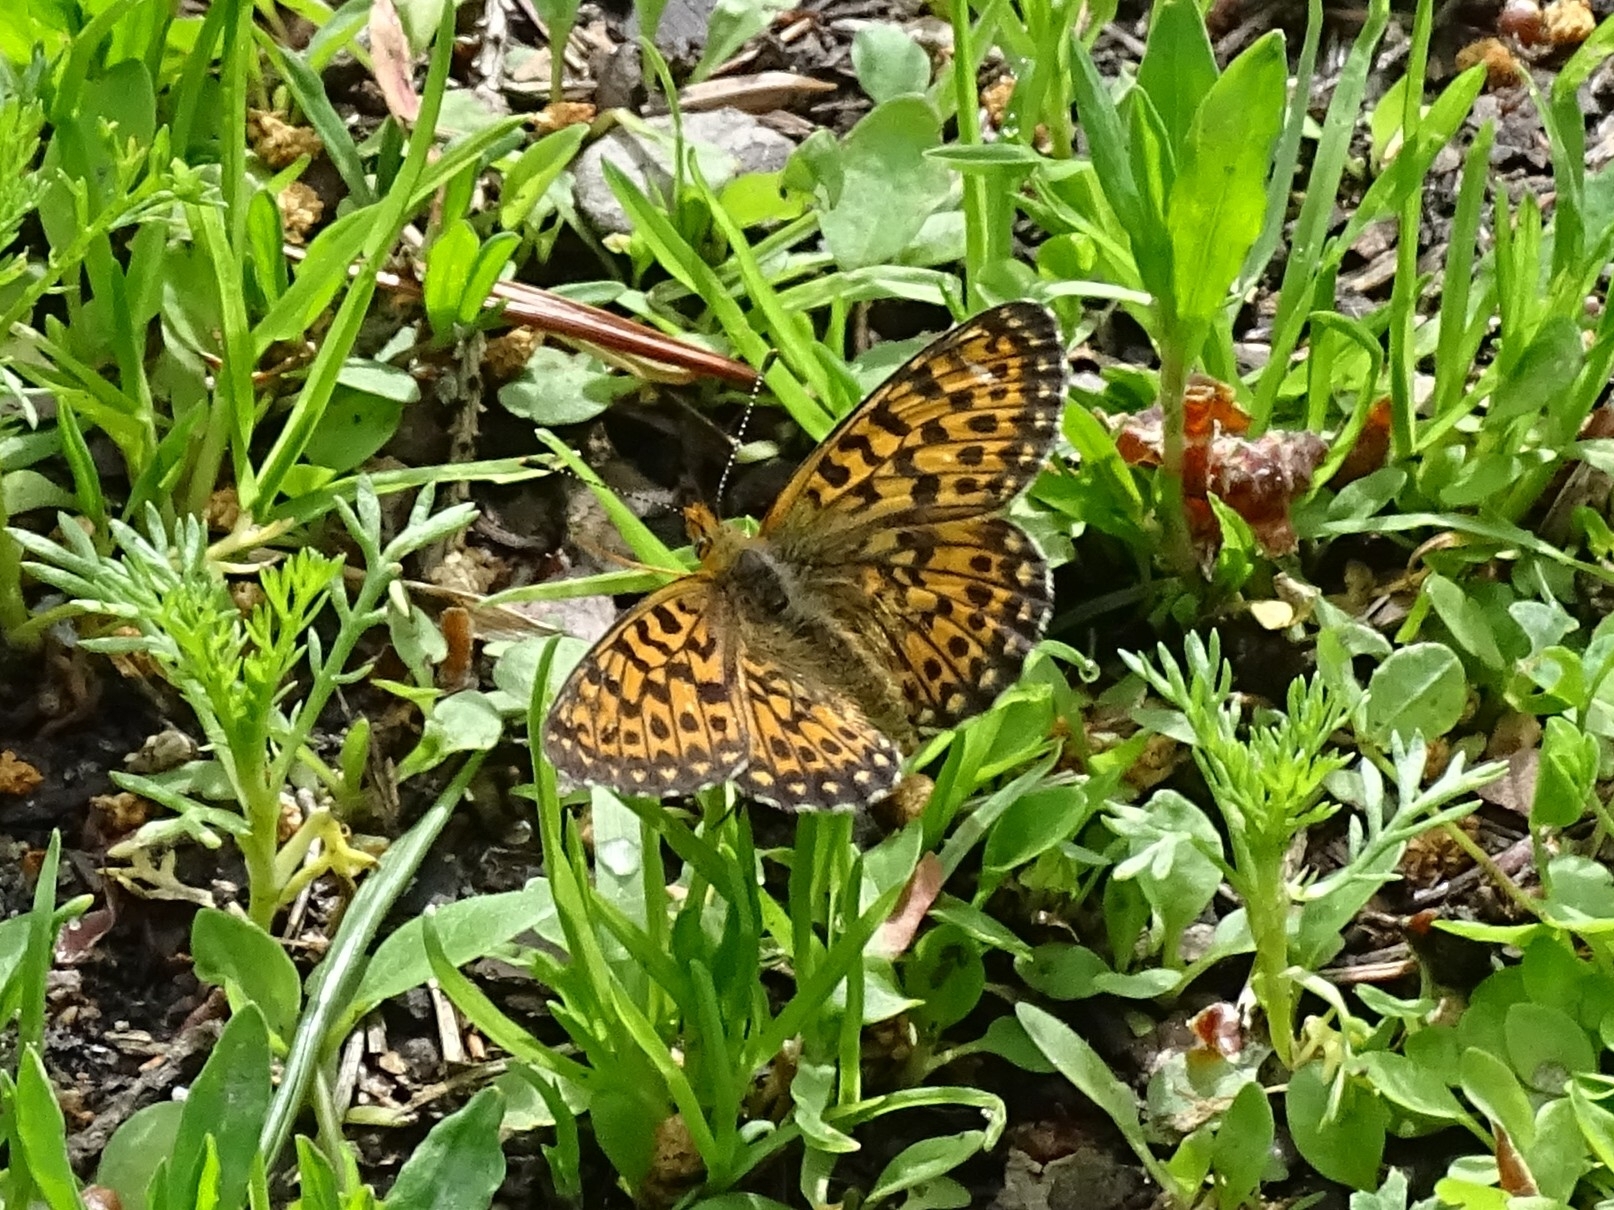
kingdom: Animalia
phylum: Arthropoda
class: Insecta
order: Lepidoptera
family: Nymphalidae
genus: Clossiana
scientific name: Clossiana euphrosyne
